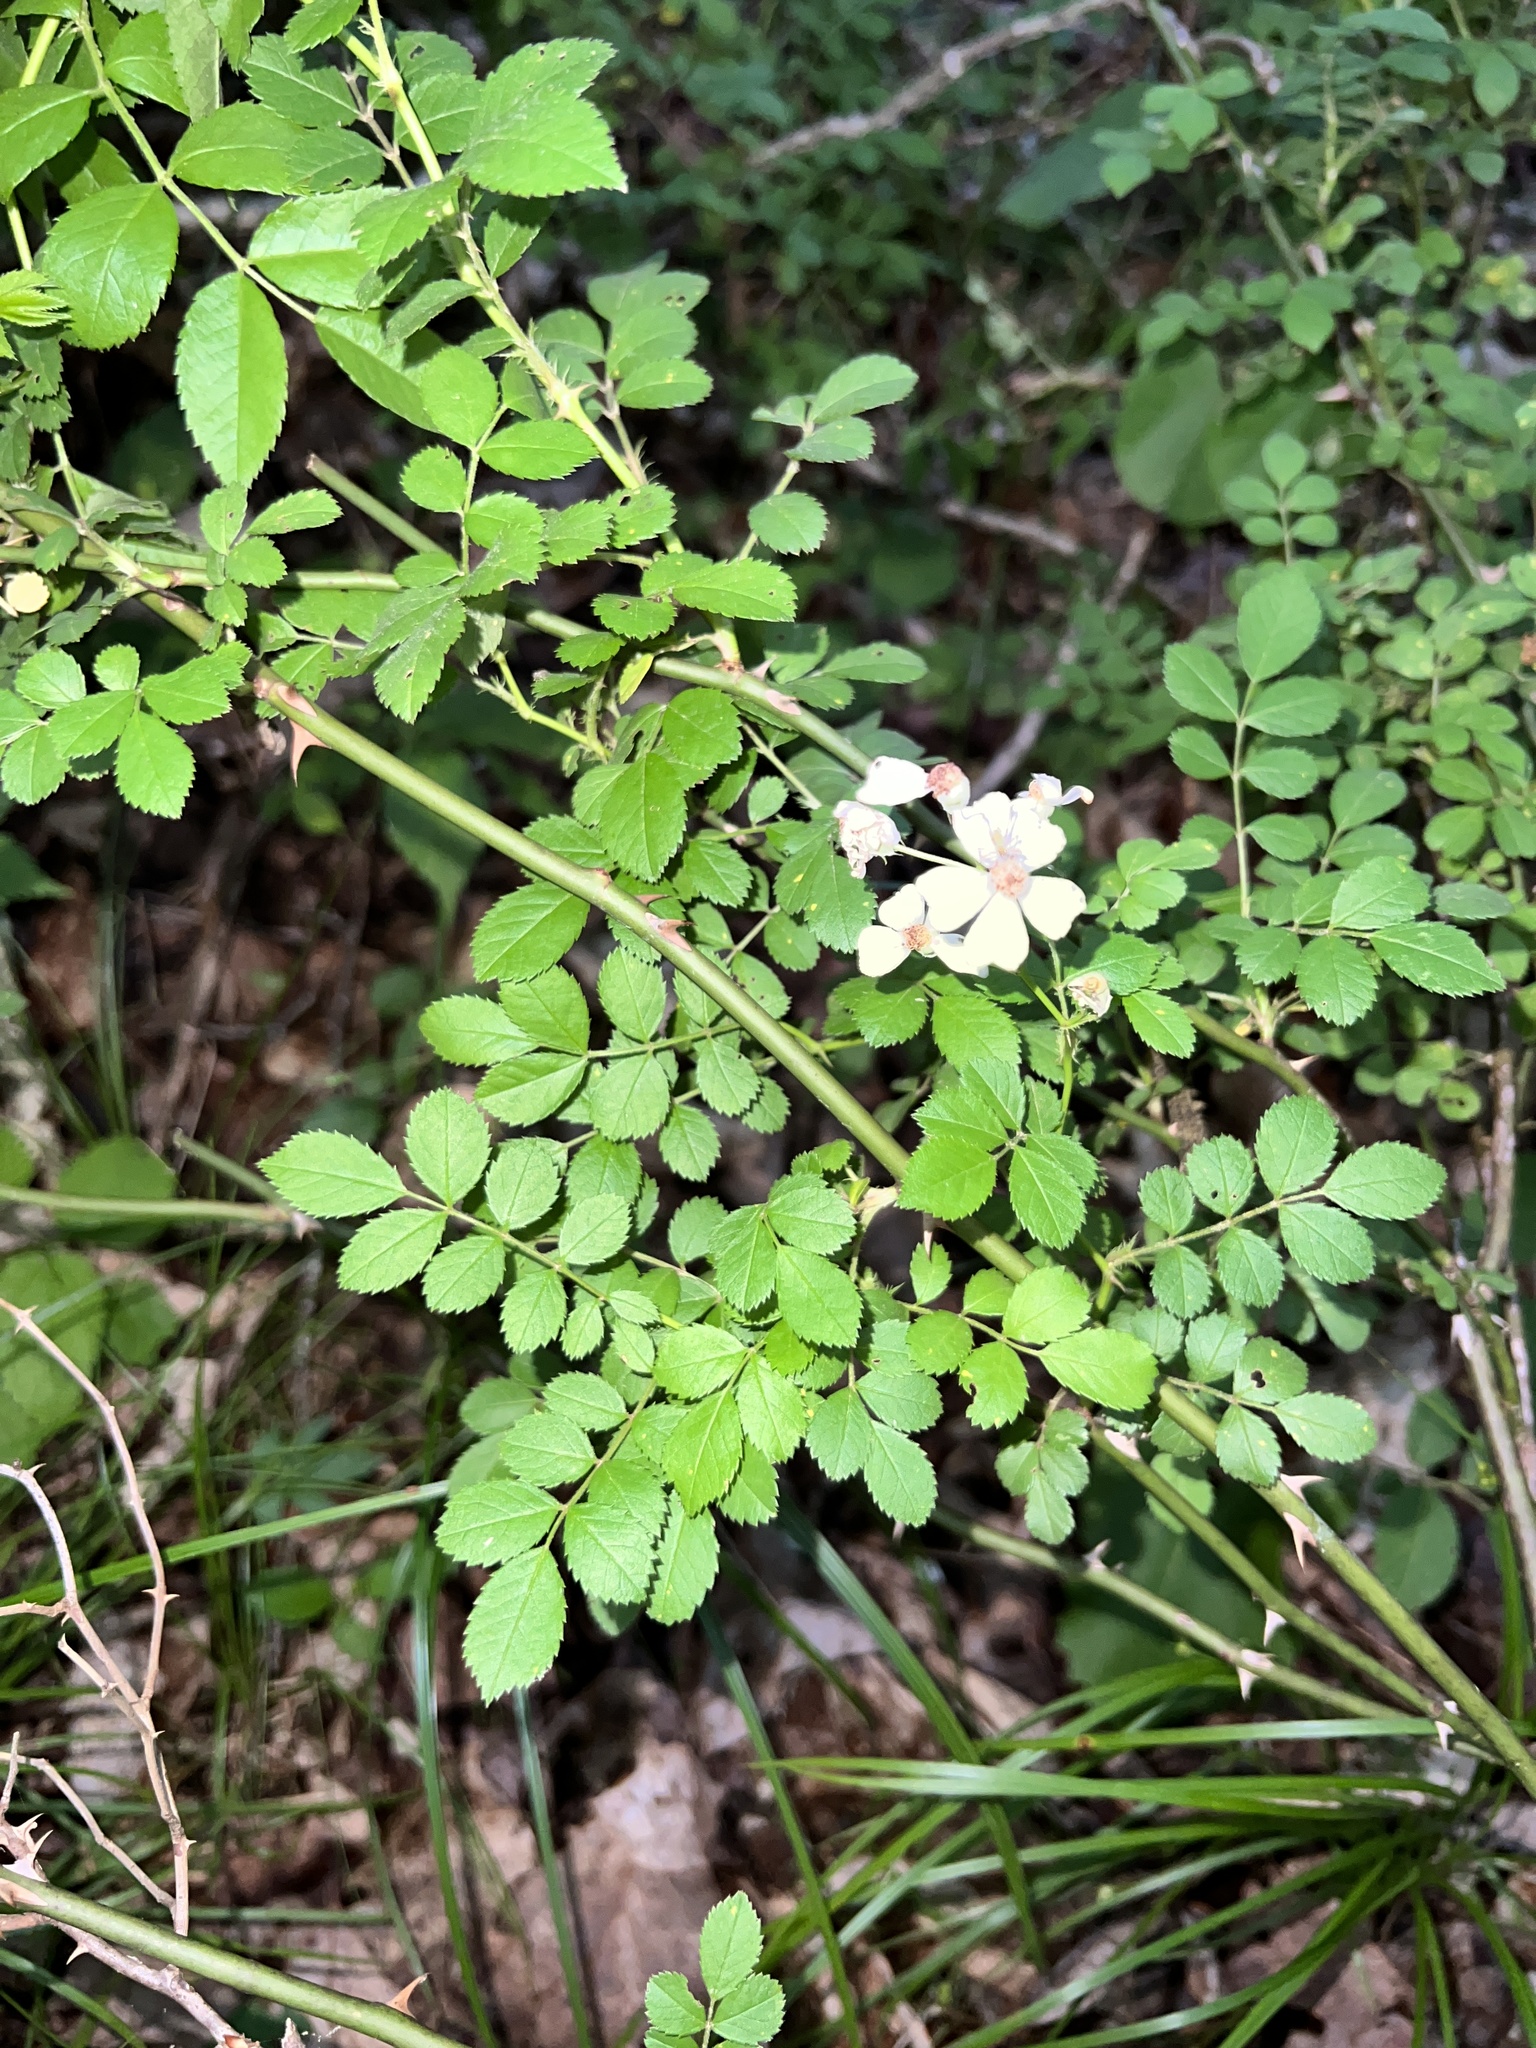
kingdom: Plantae
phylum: Tracheophyta
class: Magnoliopsida
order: Rosales
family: Rosaceae
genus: Rosa
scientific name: Rosa multiflora
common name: Multiflora rose
